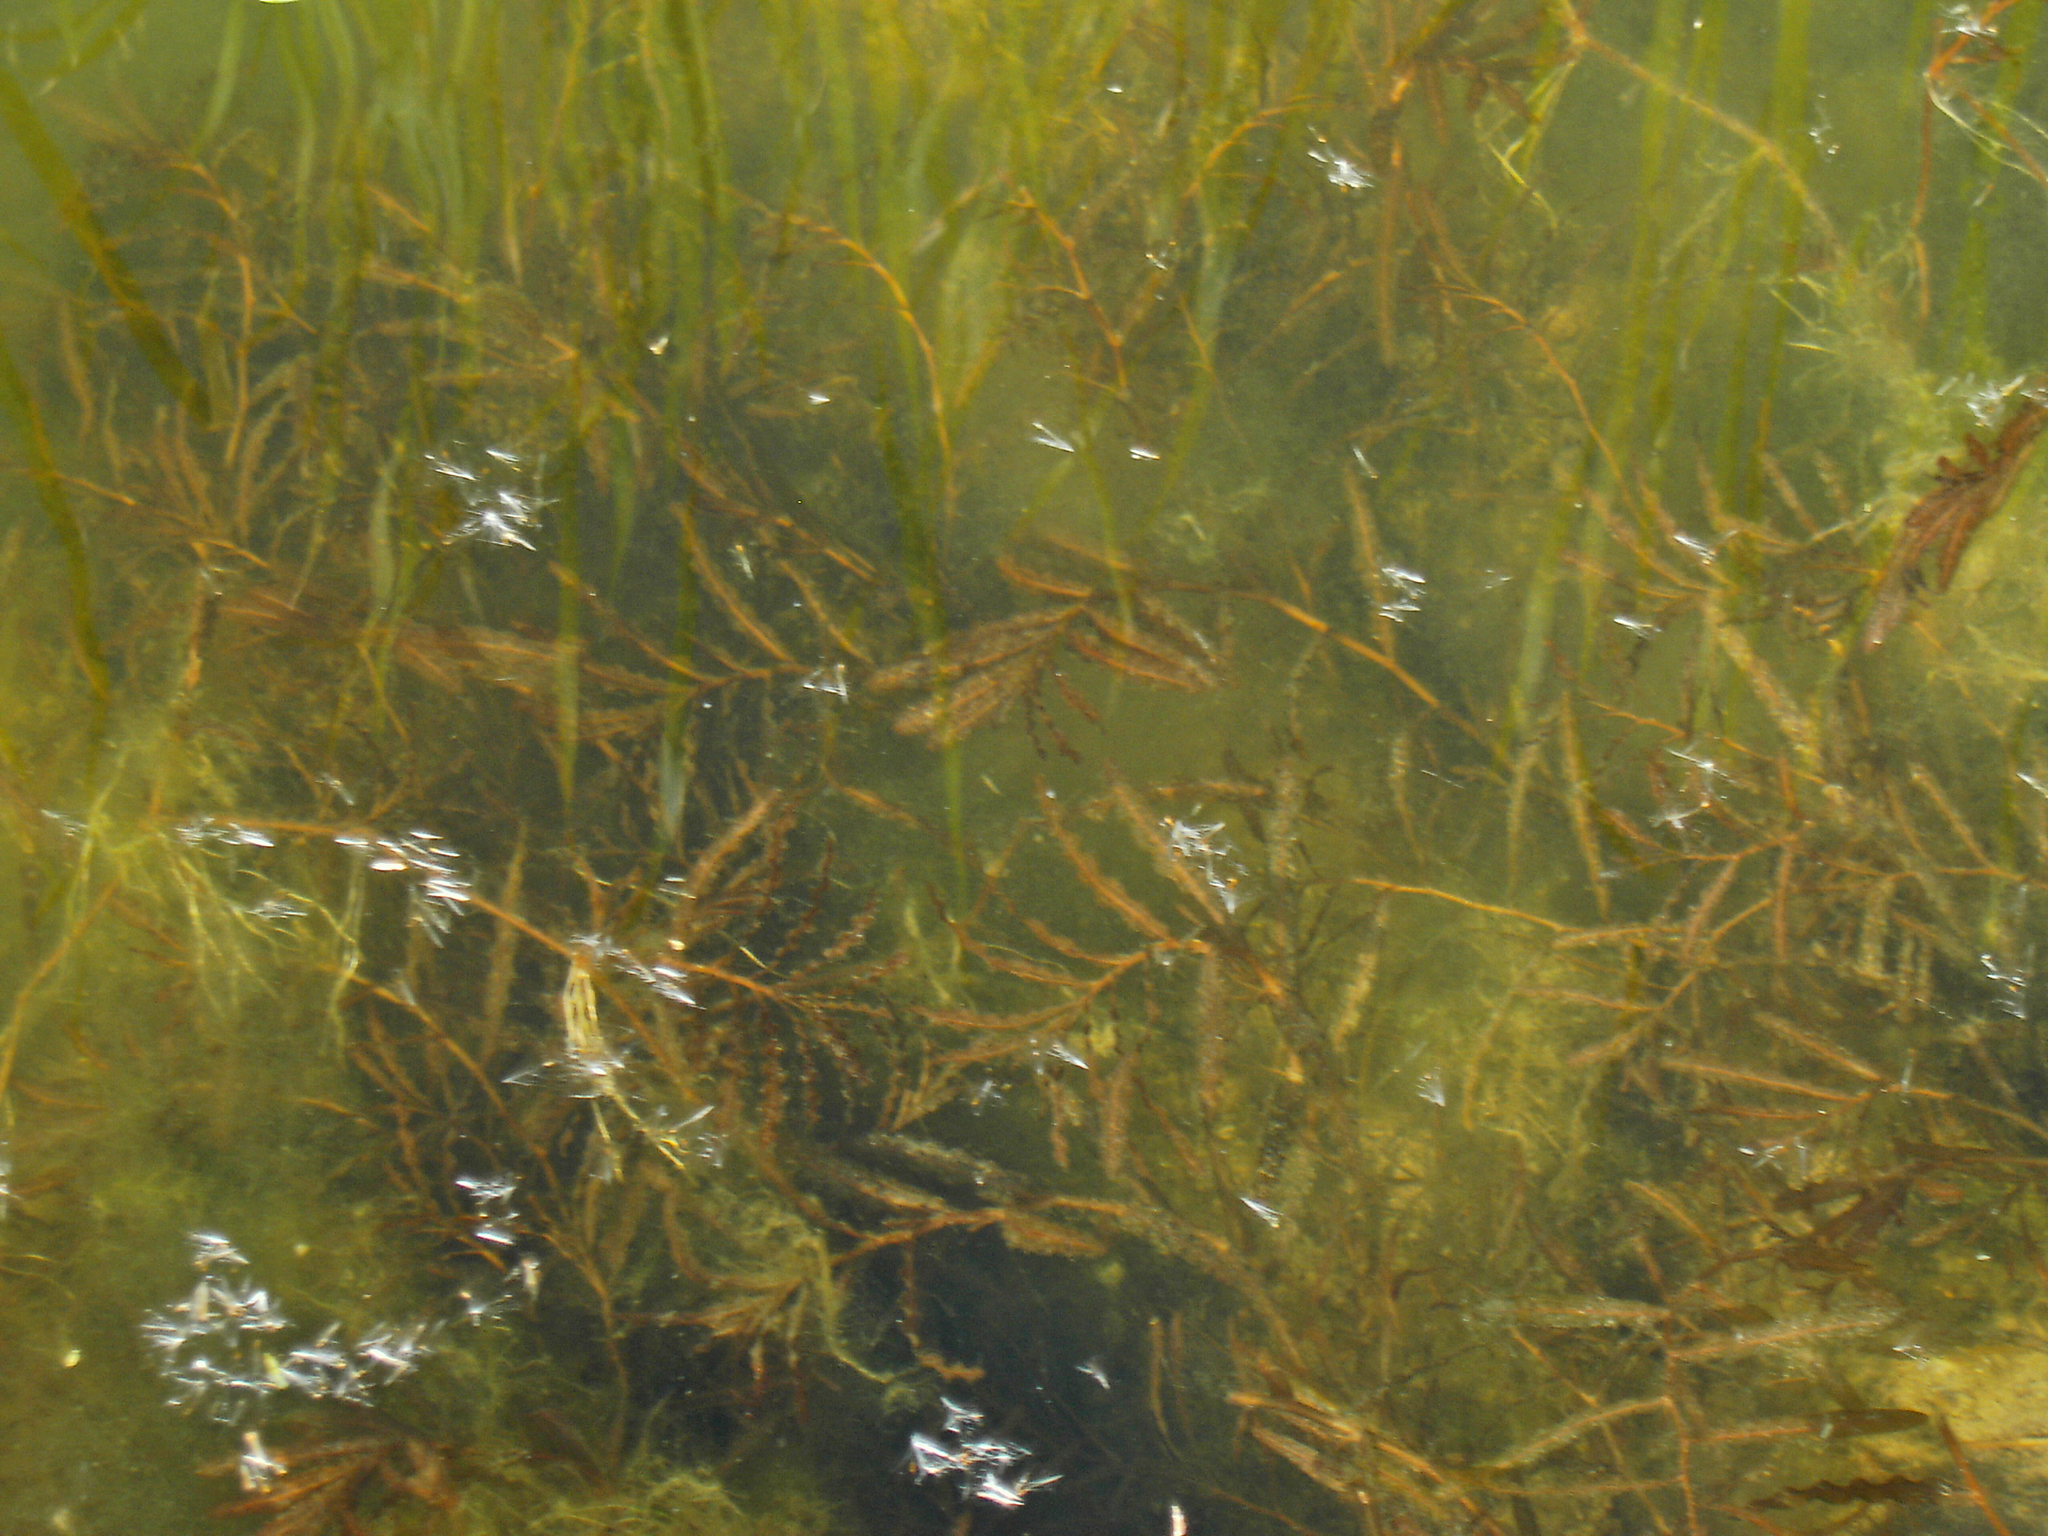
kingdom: Plantae
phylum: Tracheophyta
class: Liliopsida
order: Alismatales
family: Potamogetonaceae
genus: Potamogeton
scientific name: Potamogeton crispus
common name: Curled pondweed
